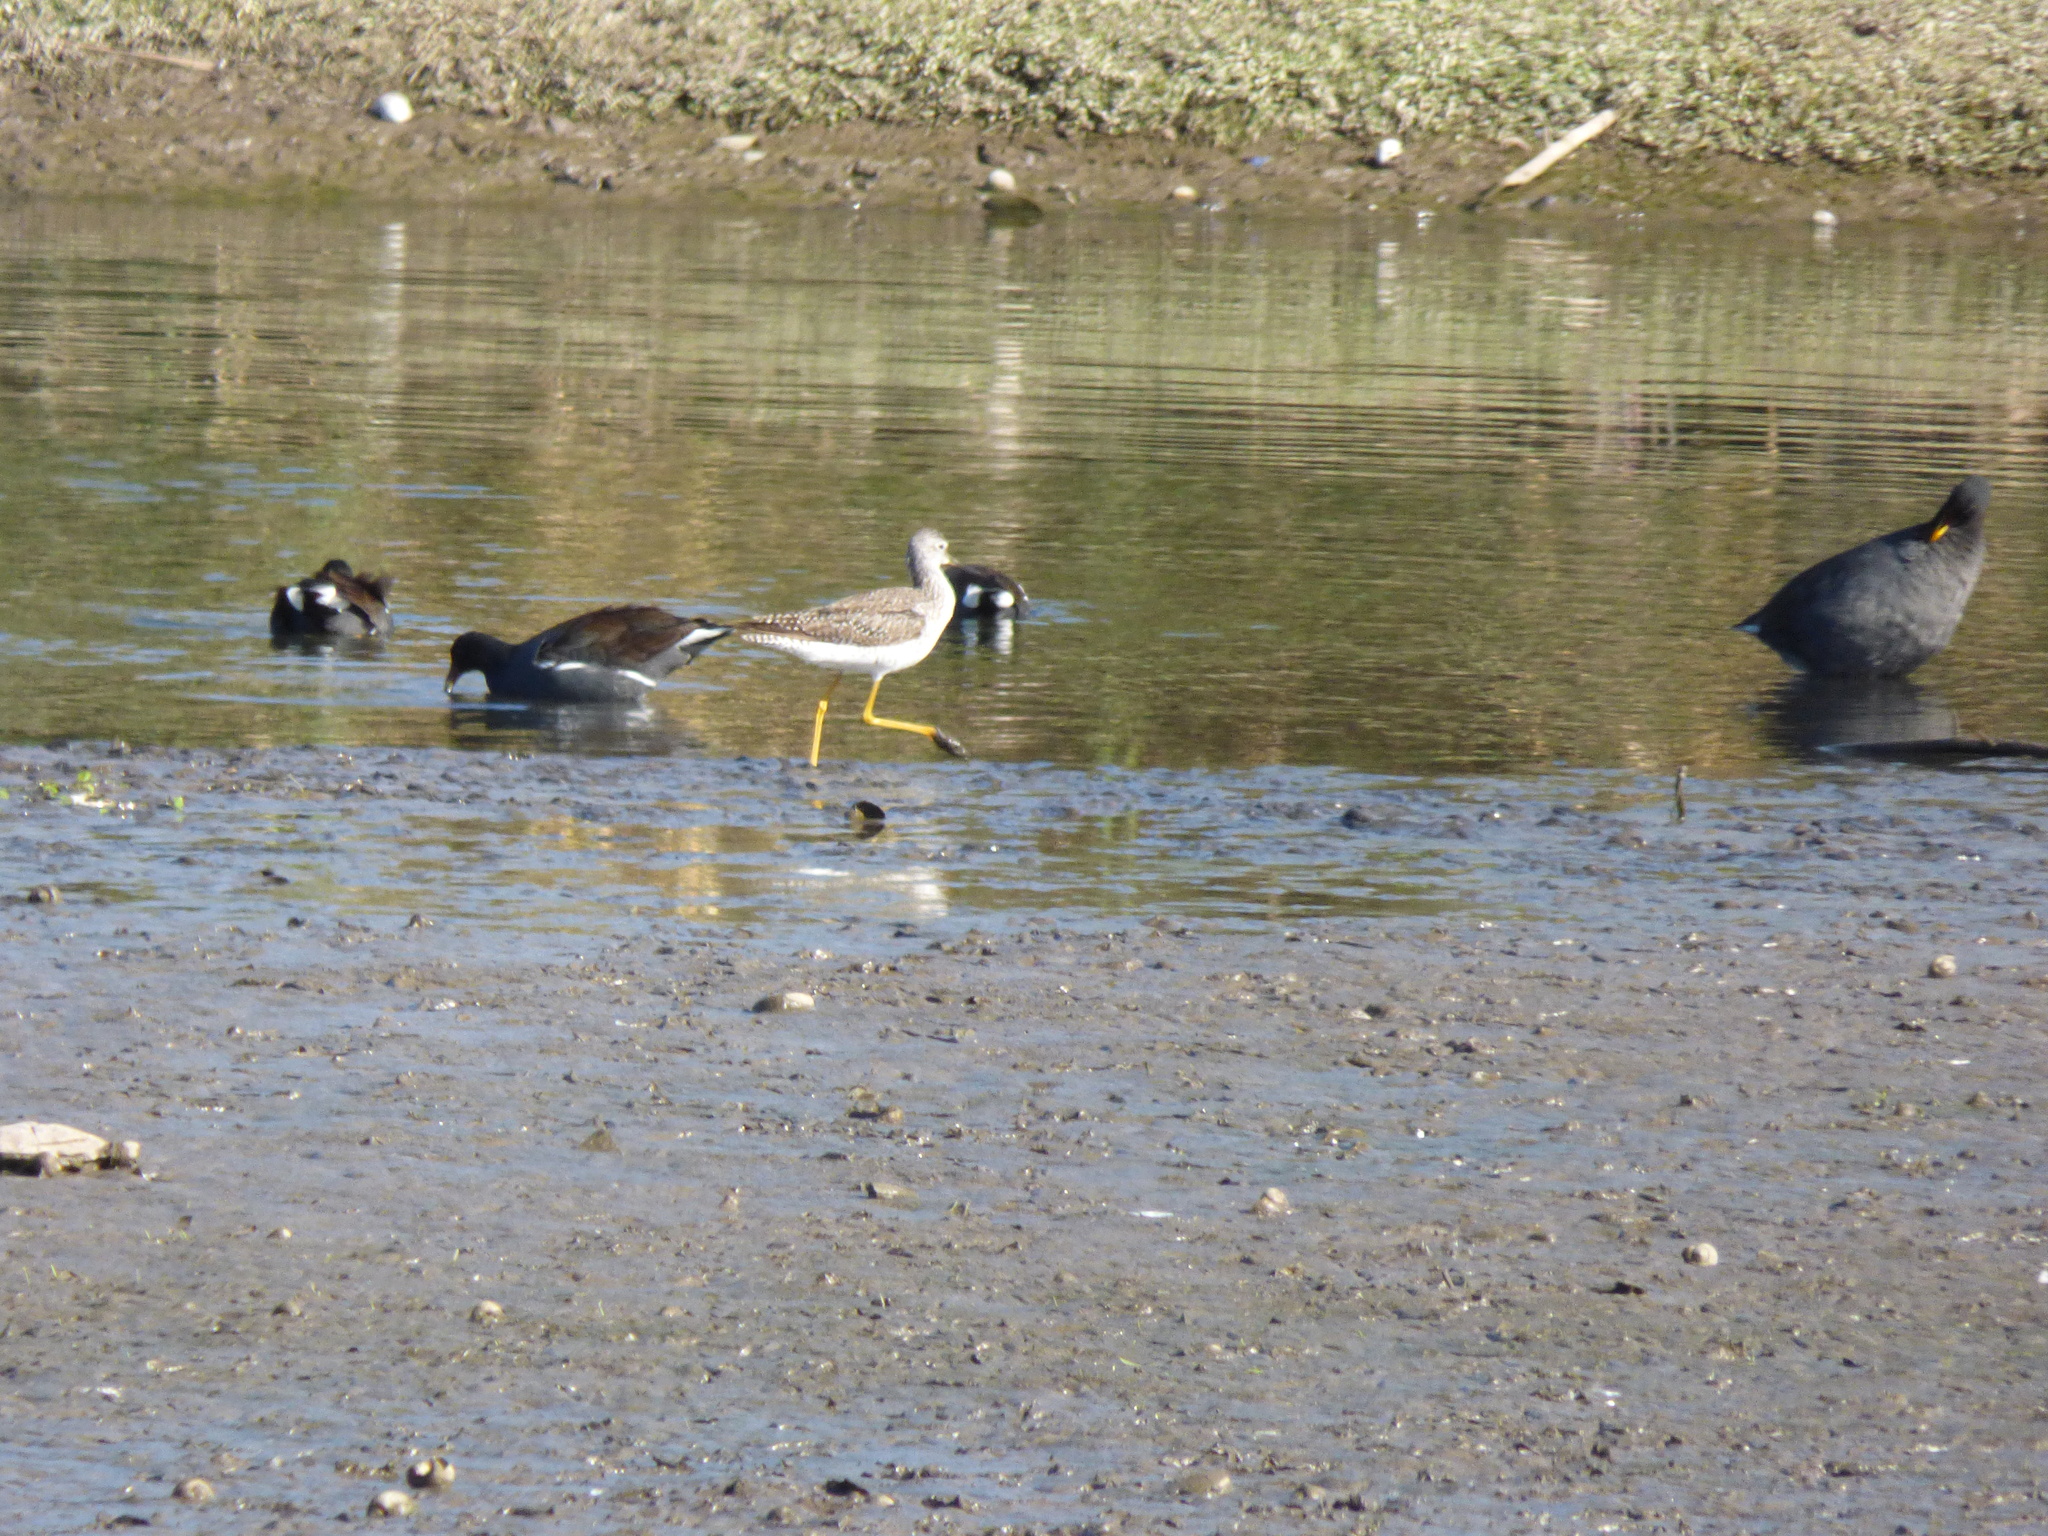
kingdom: Animalia
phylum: Chordata
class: Aves
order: Charadriiformes
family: Scolopacidae
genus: Tringa
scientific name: Tringa melanoleuca
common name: Greater yellowlegs
